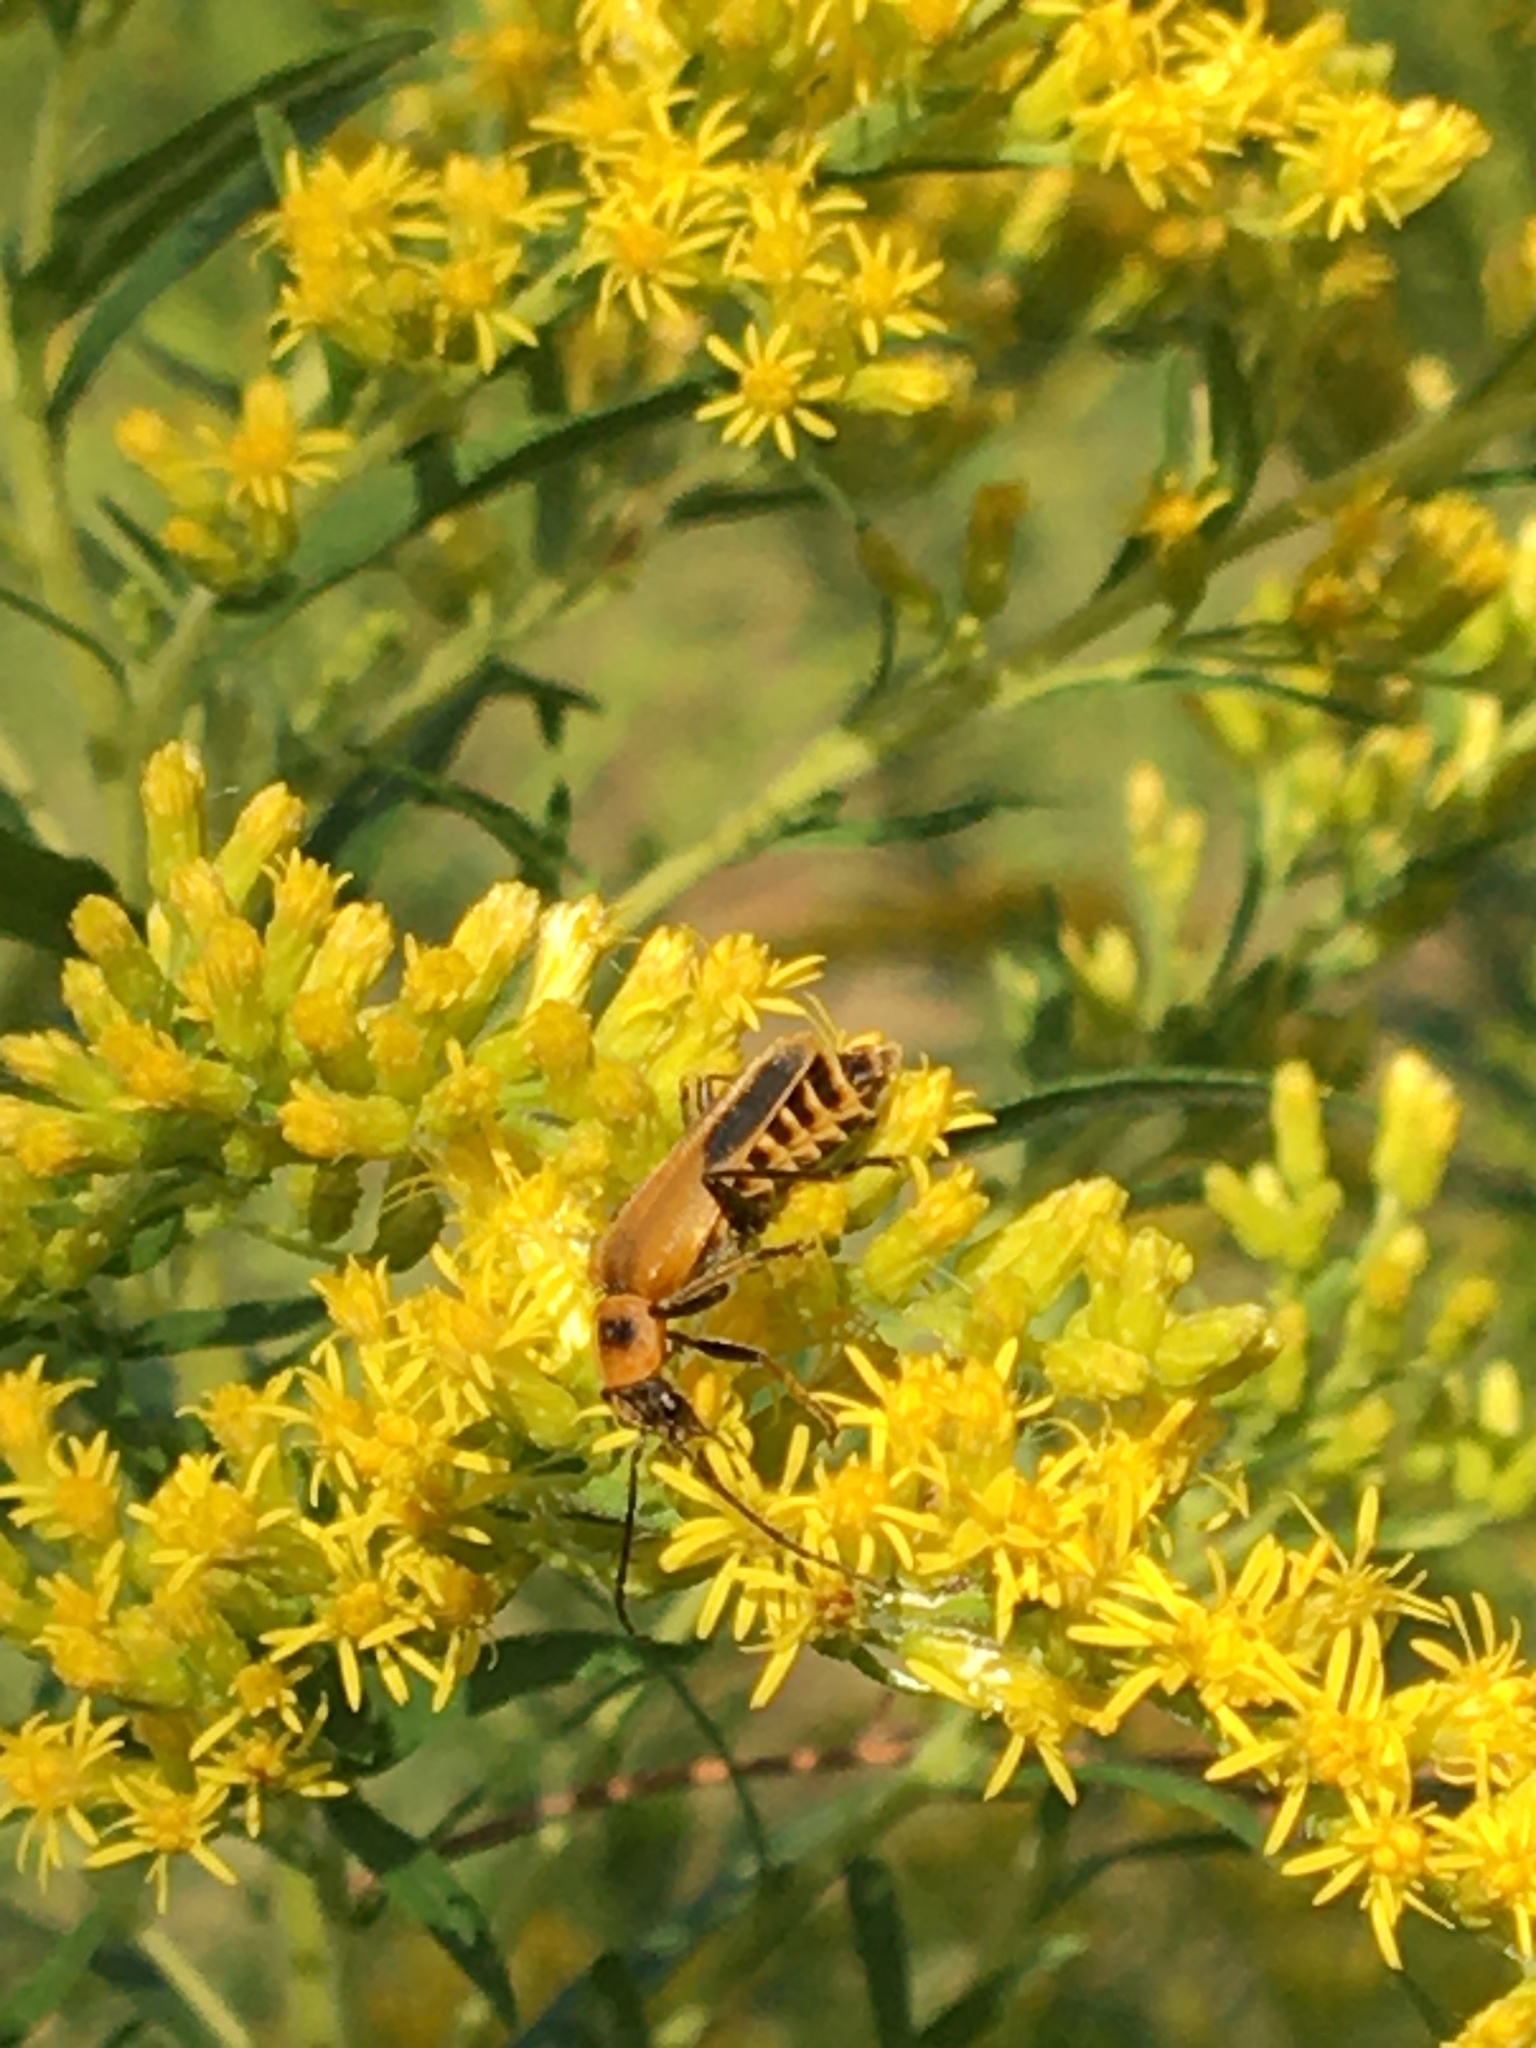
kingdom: Animalia
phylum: Arthropoda
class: Insecta
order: Coleoptera
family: Cantharidae
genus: Chauliognathus
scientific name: Chauliognathus pensylvanicus
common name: Goldenrod soldier beetle
